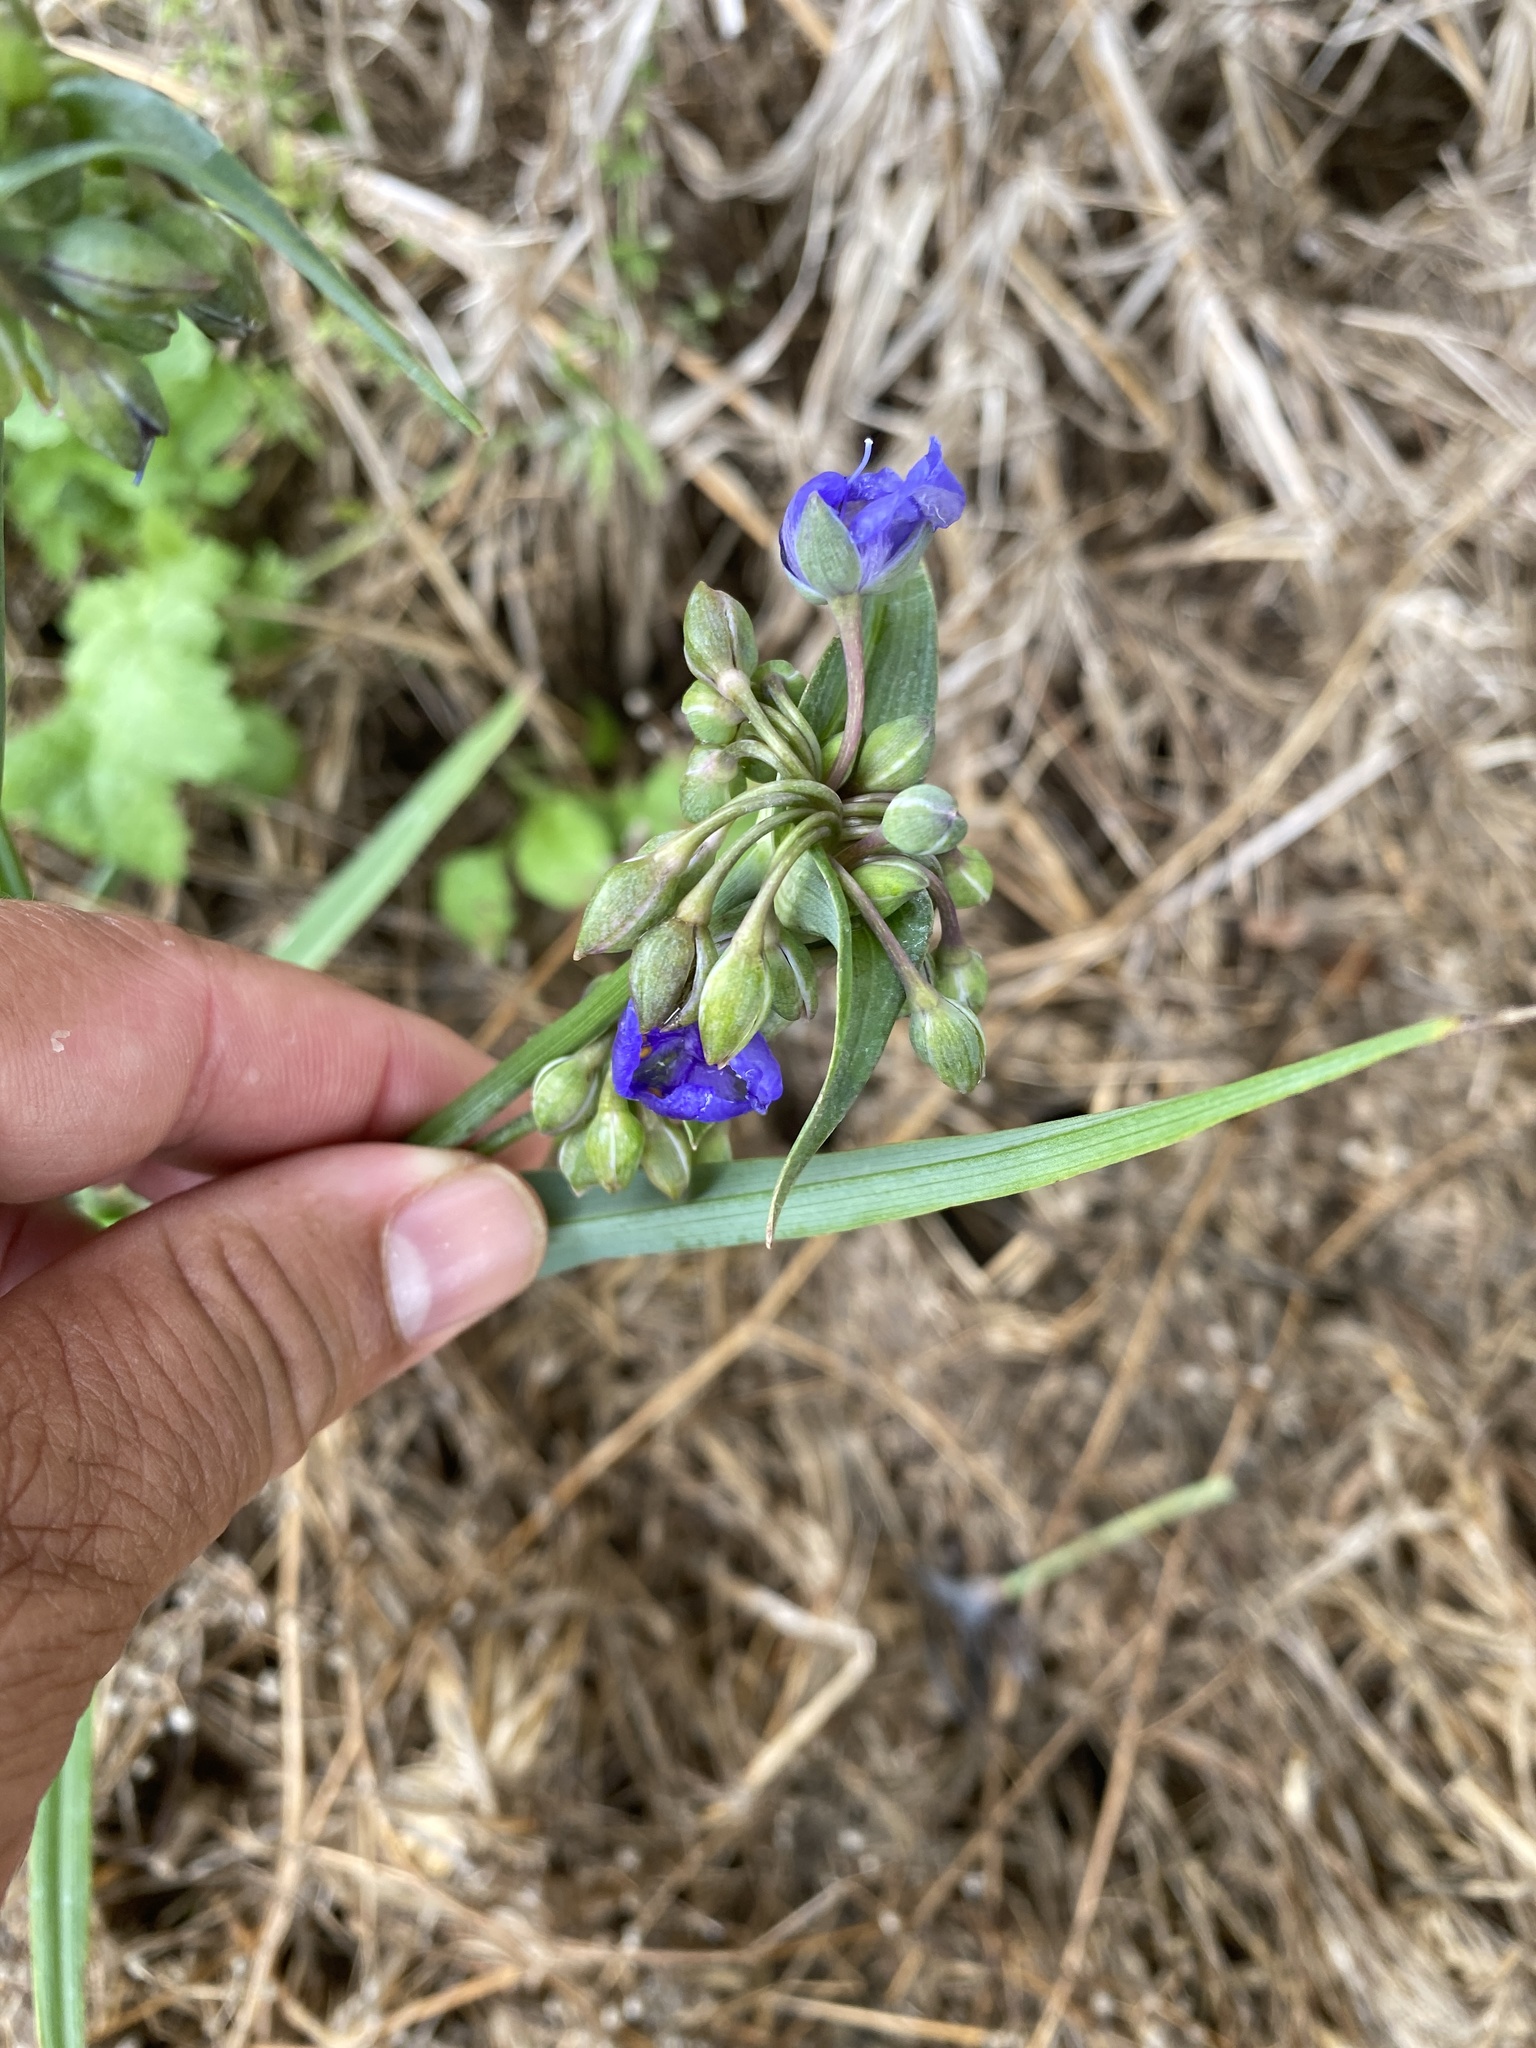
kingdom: Plantae
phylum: Tracheophyta
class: Liliopsida
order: Commelinales
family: Commelinaceae
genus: Tradescantia
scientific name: Tradescantia ohiensis
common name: Ohio spiderwort
